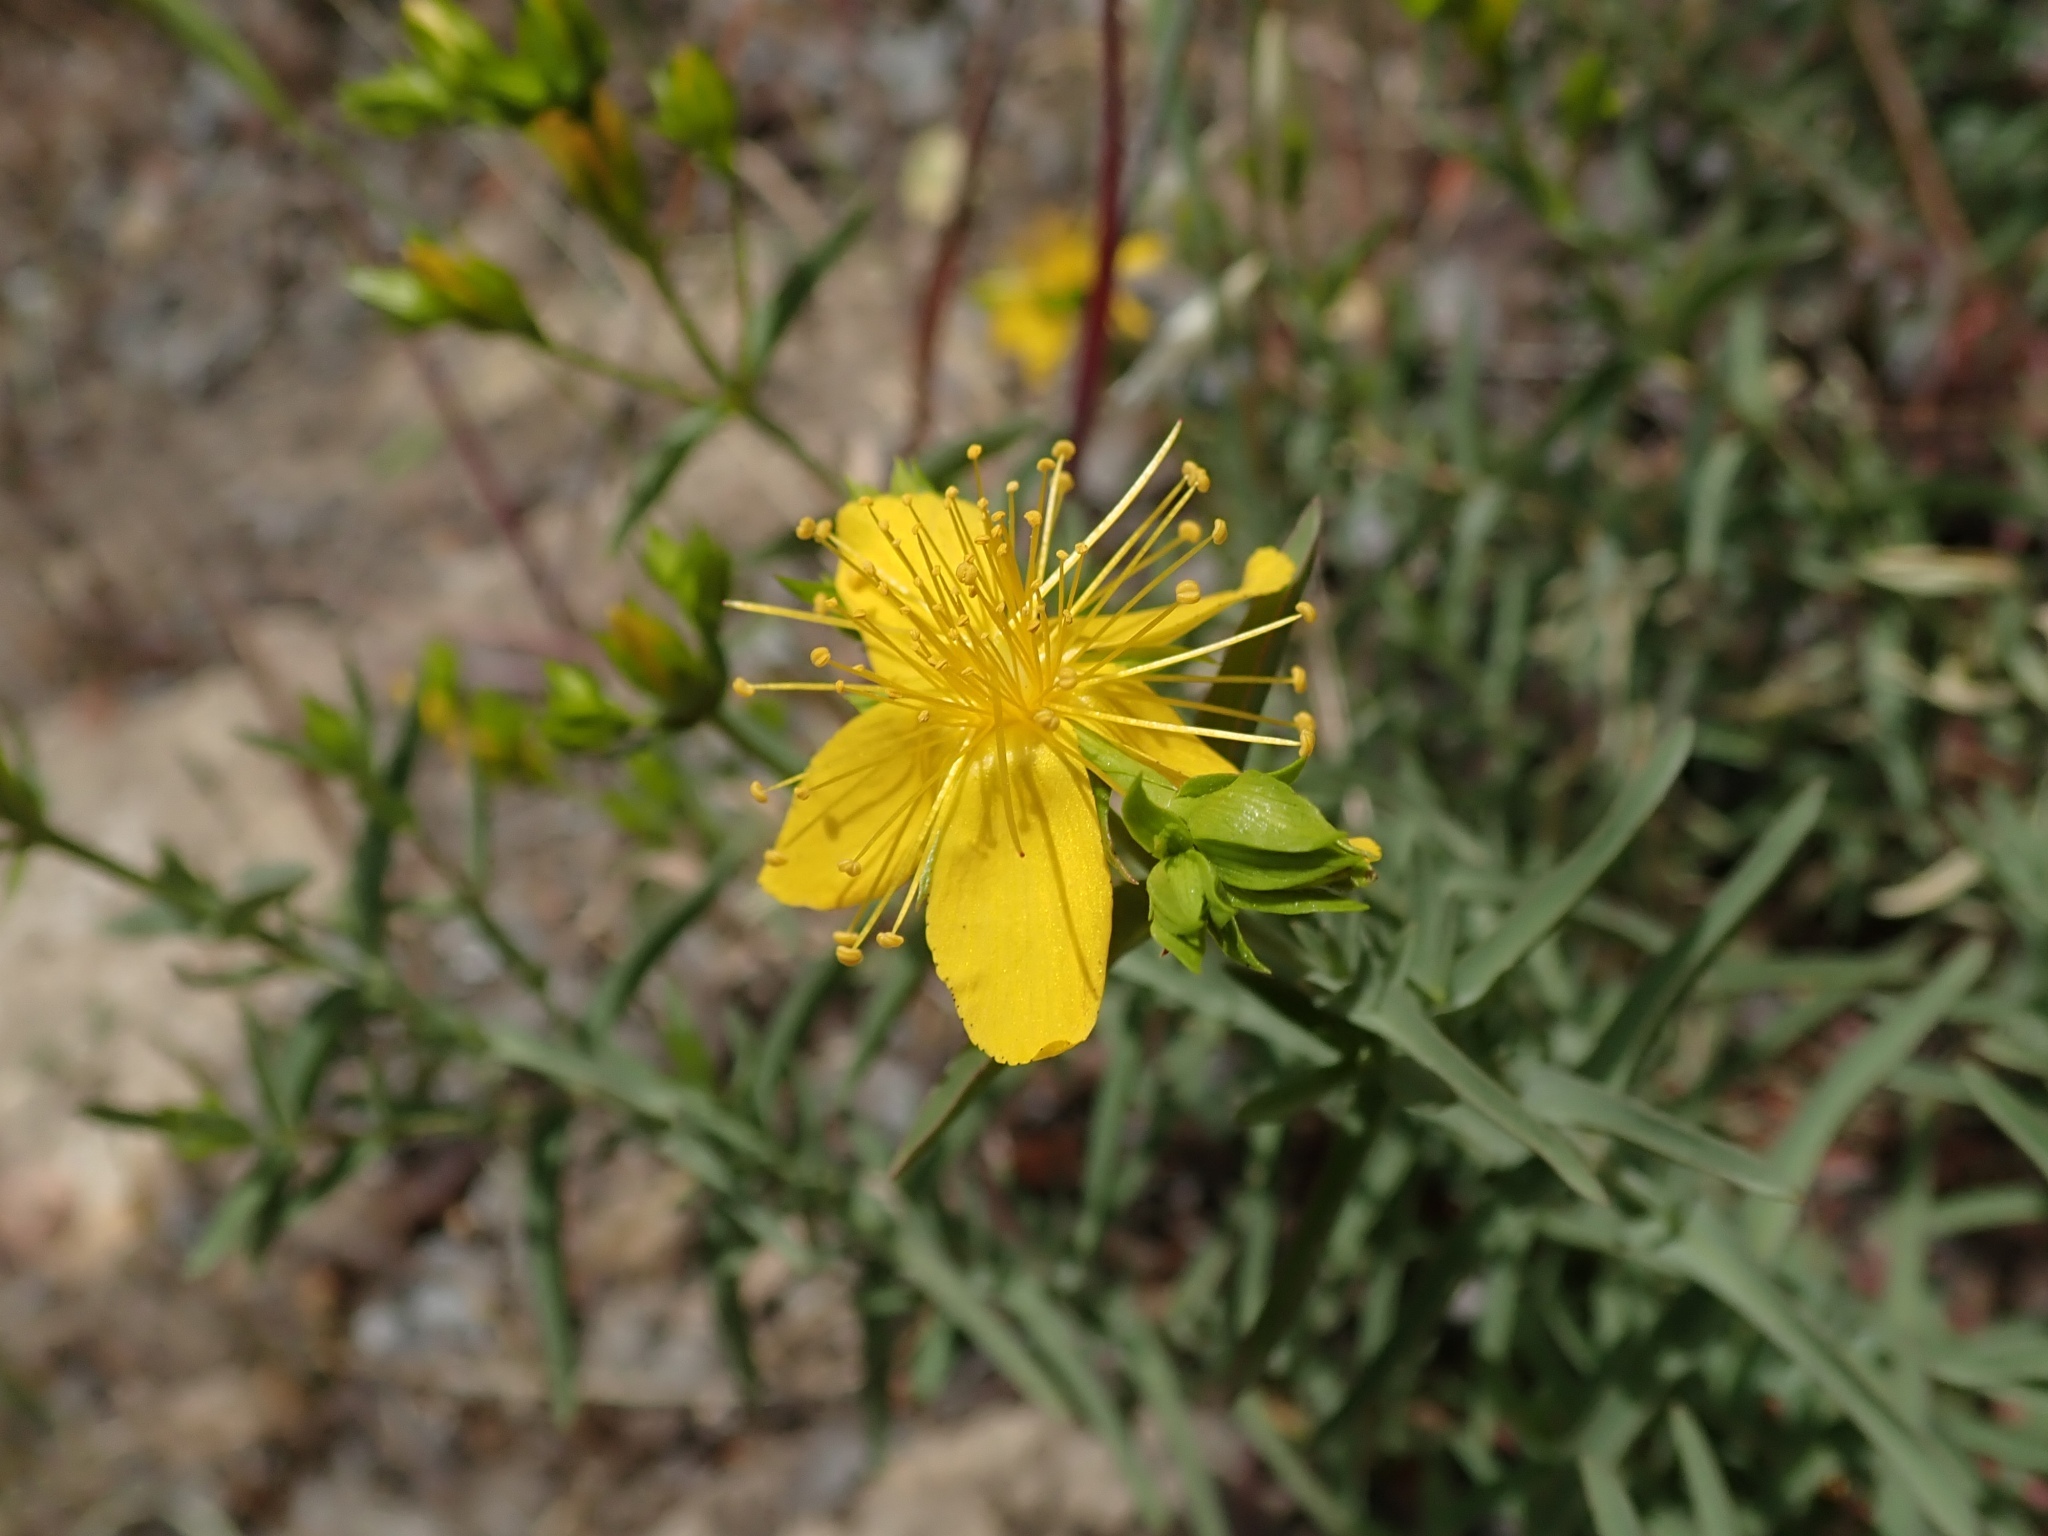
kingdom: Plantae
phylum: Tracheophyta
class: Magnoliopsida
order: Malpighiales
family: Hypericaceae
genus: Hypericum
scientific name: Hypericum concinnum
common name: Gold-wire
